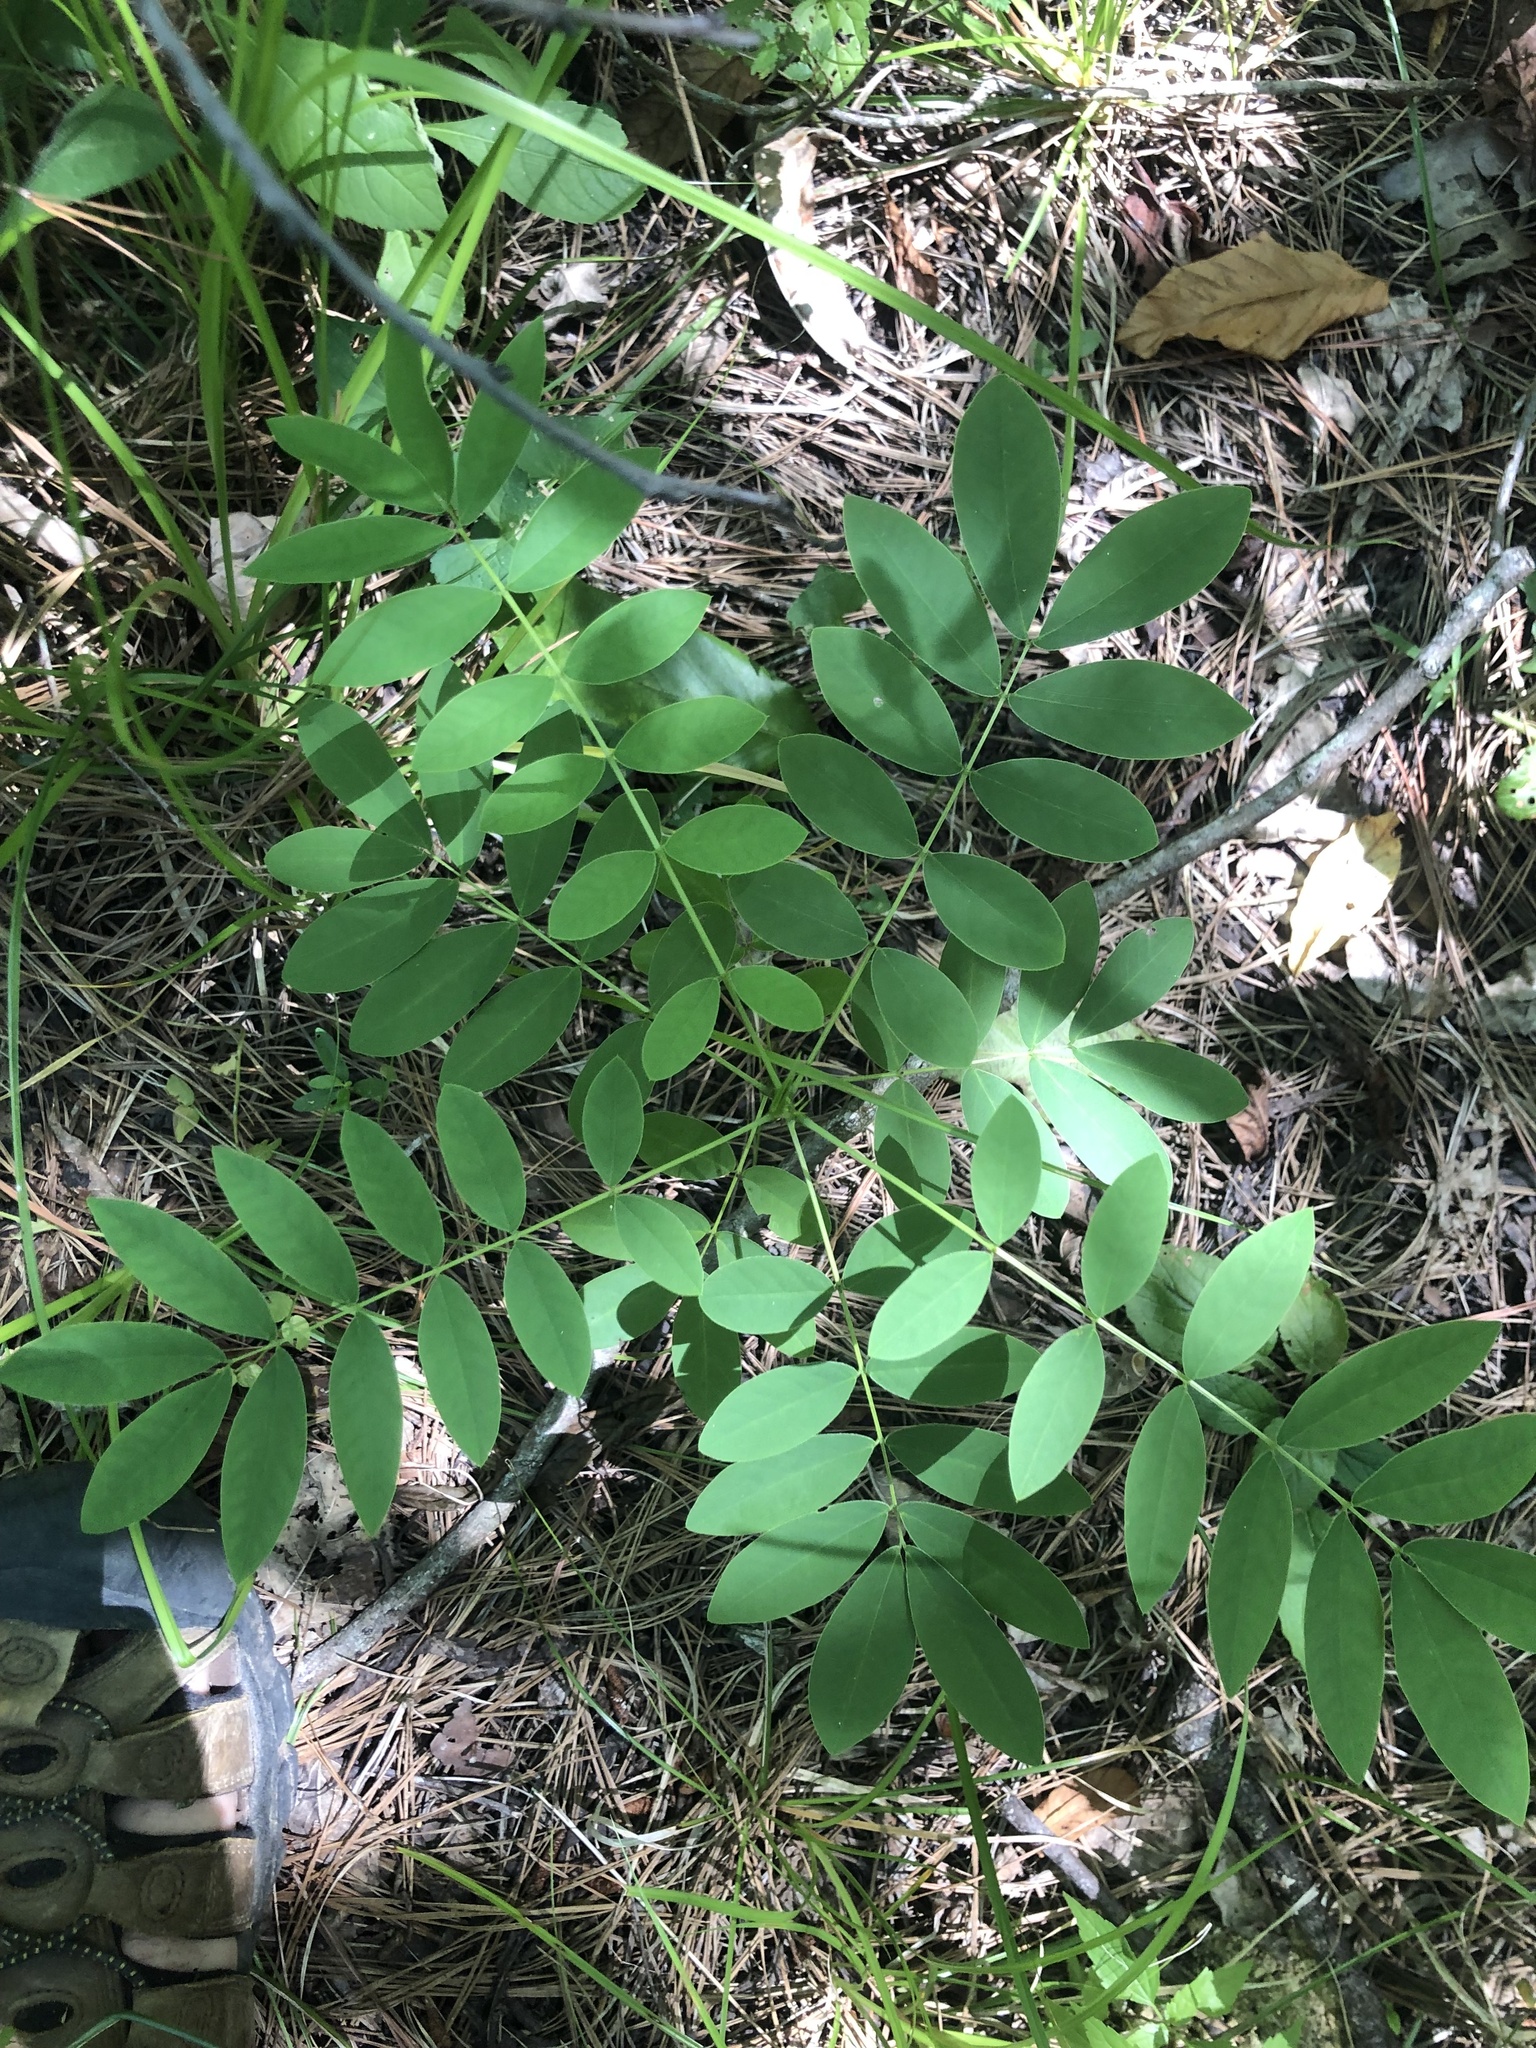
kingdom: Plantae
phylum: Tracheophyta
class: Magnoliopsida
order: Fabales
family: Fabaceae
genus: Senna
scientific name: Senna marilandica
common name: American senna
